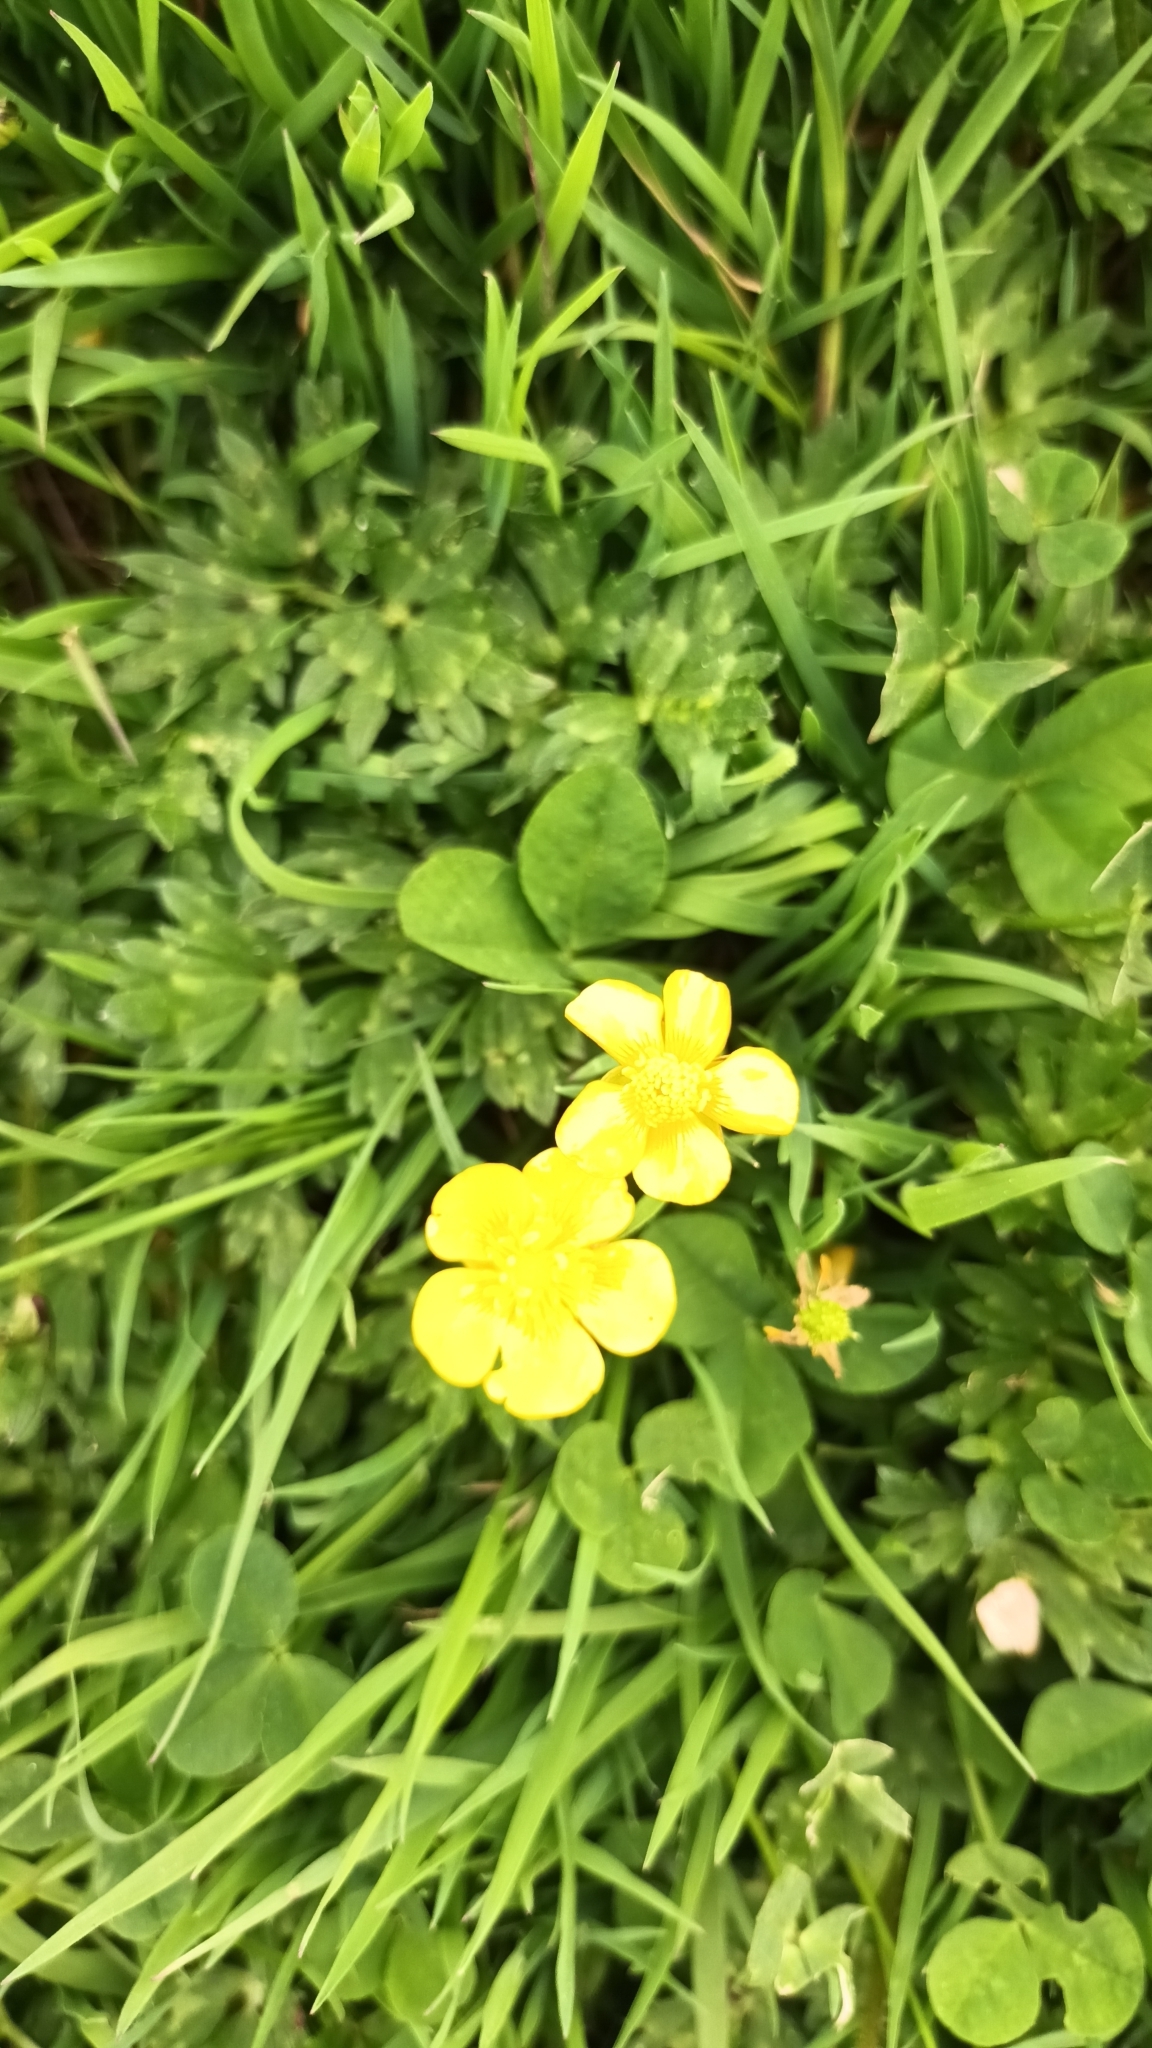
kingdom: Plantae
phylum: Tracheophyta
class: Magnoliopsida
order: Ranunculales
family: Ranunculaceae
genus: Ranunculus
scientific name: Ranunculus repens
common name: Creeping buttercup
